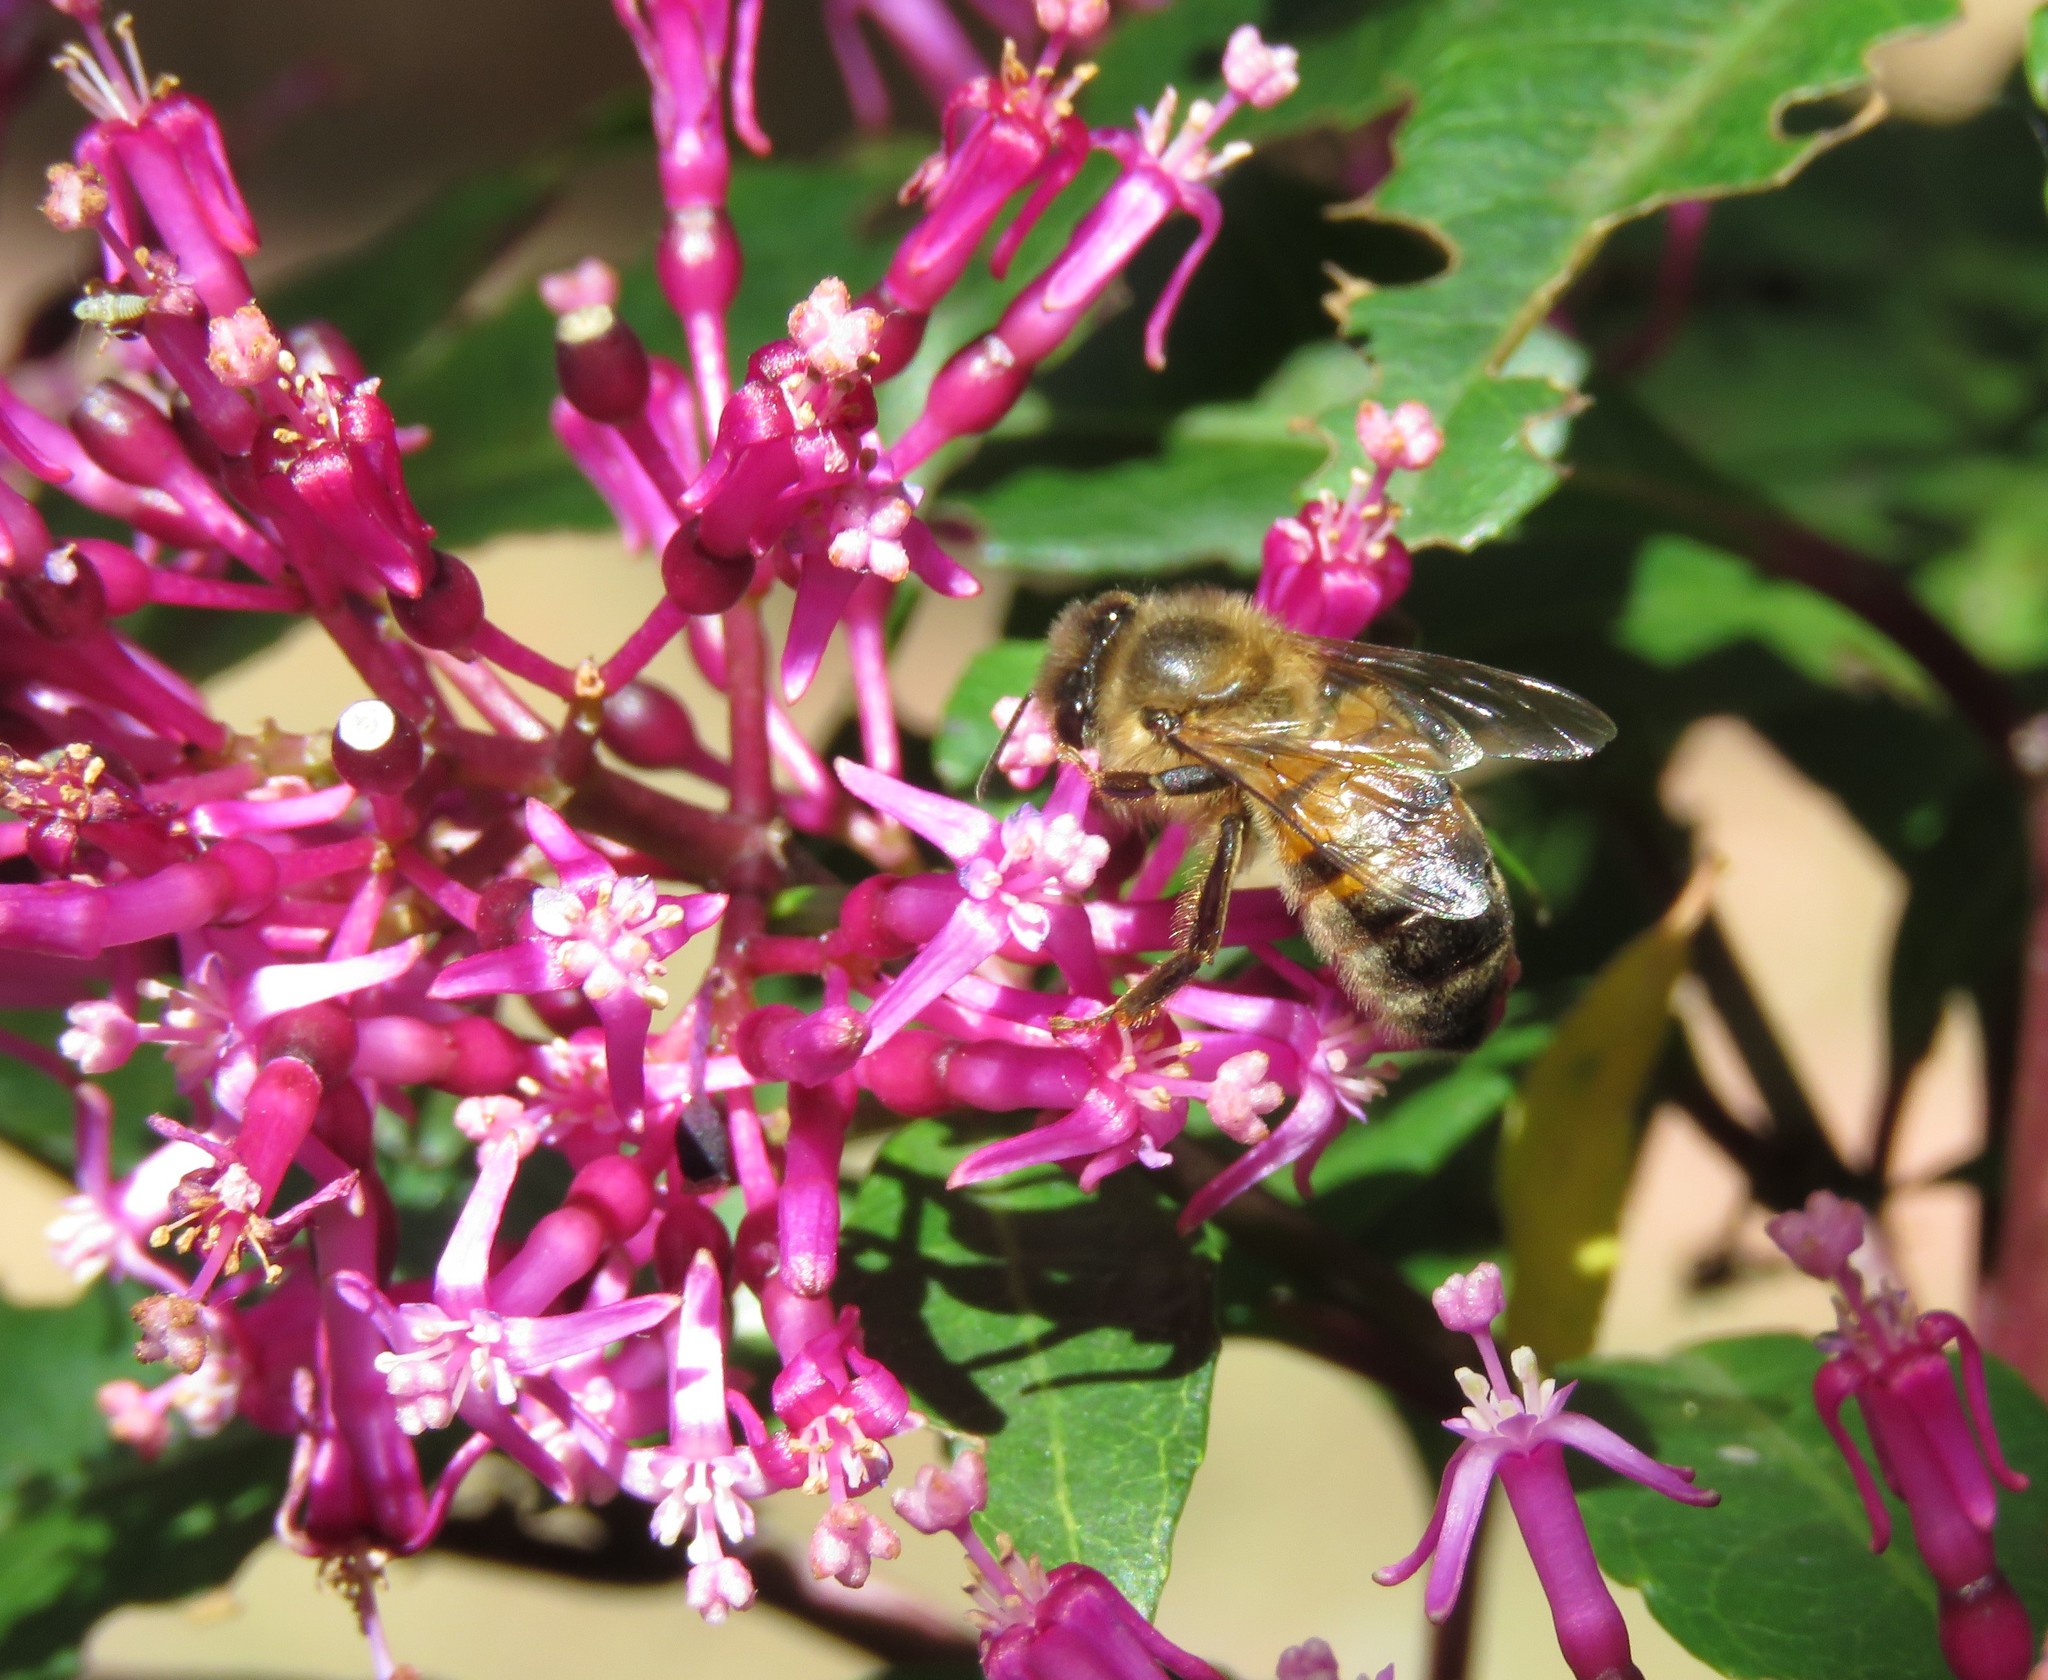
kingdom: Animalia
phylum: Arthropoda
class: Insecta
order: Hymenoptera
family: Apidae
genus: Apis
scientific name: Apis mellifera
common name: Honey bee
